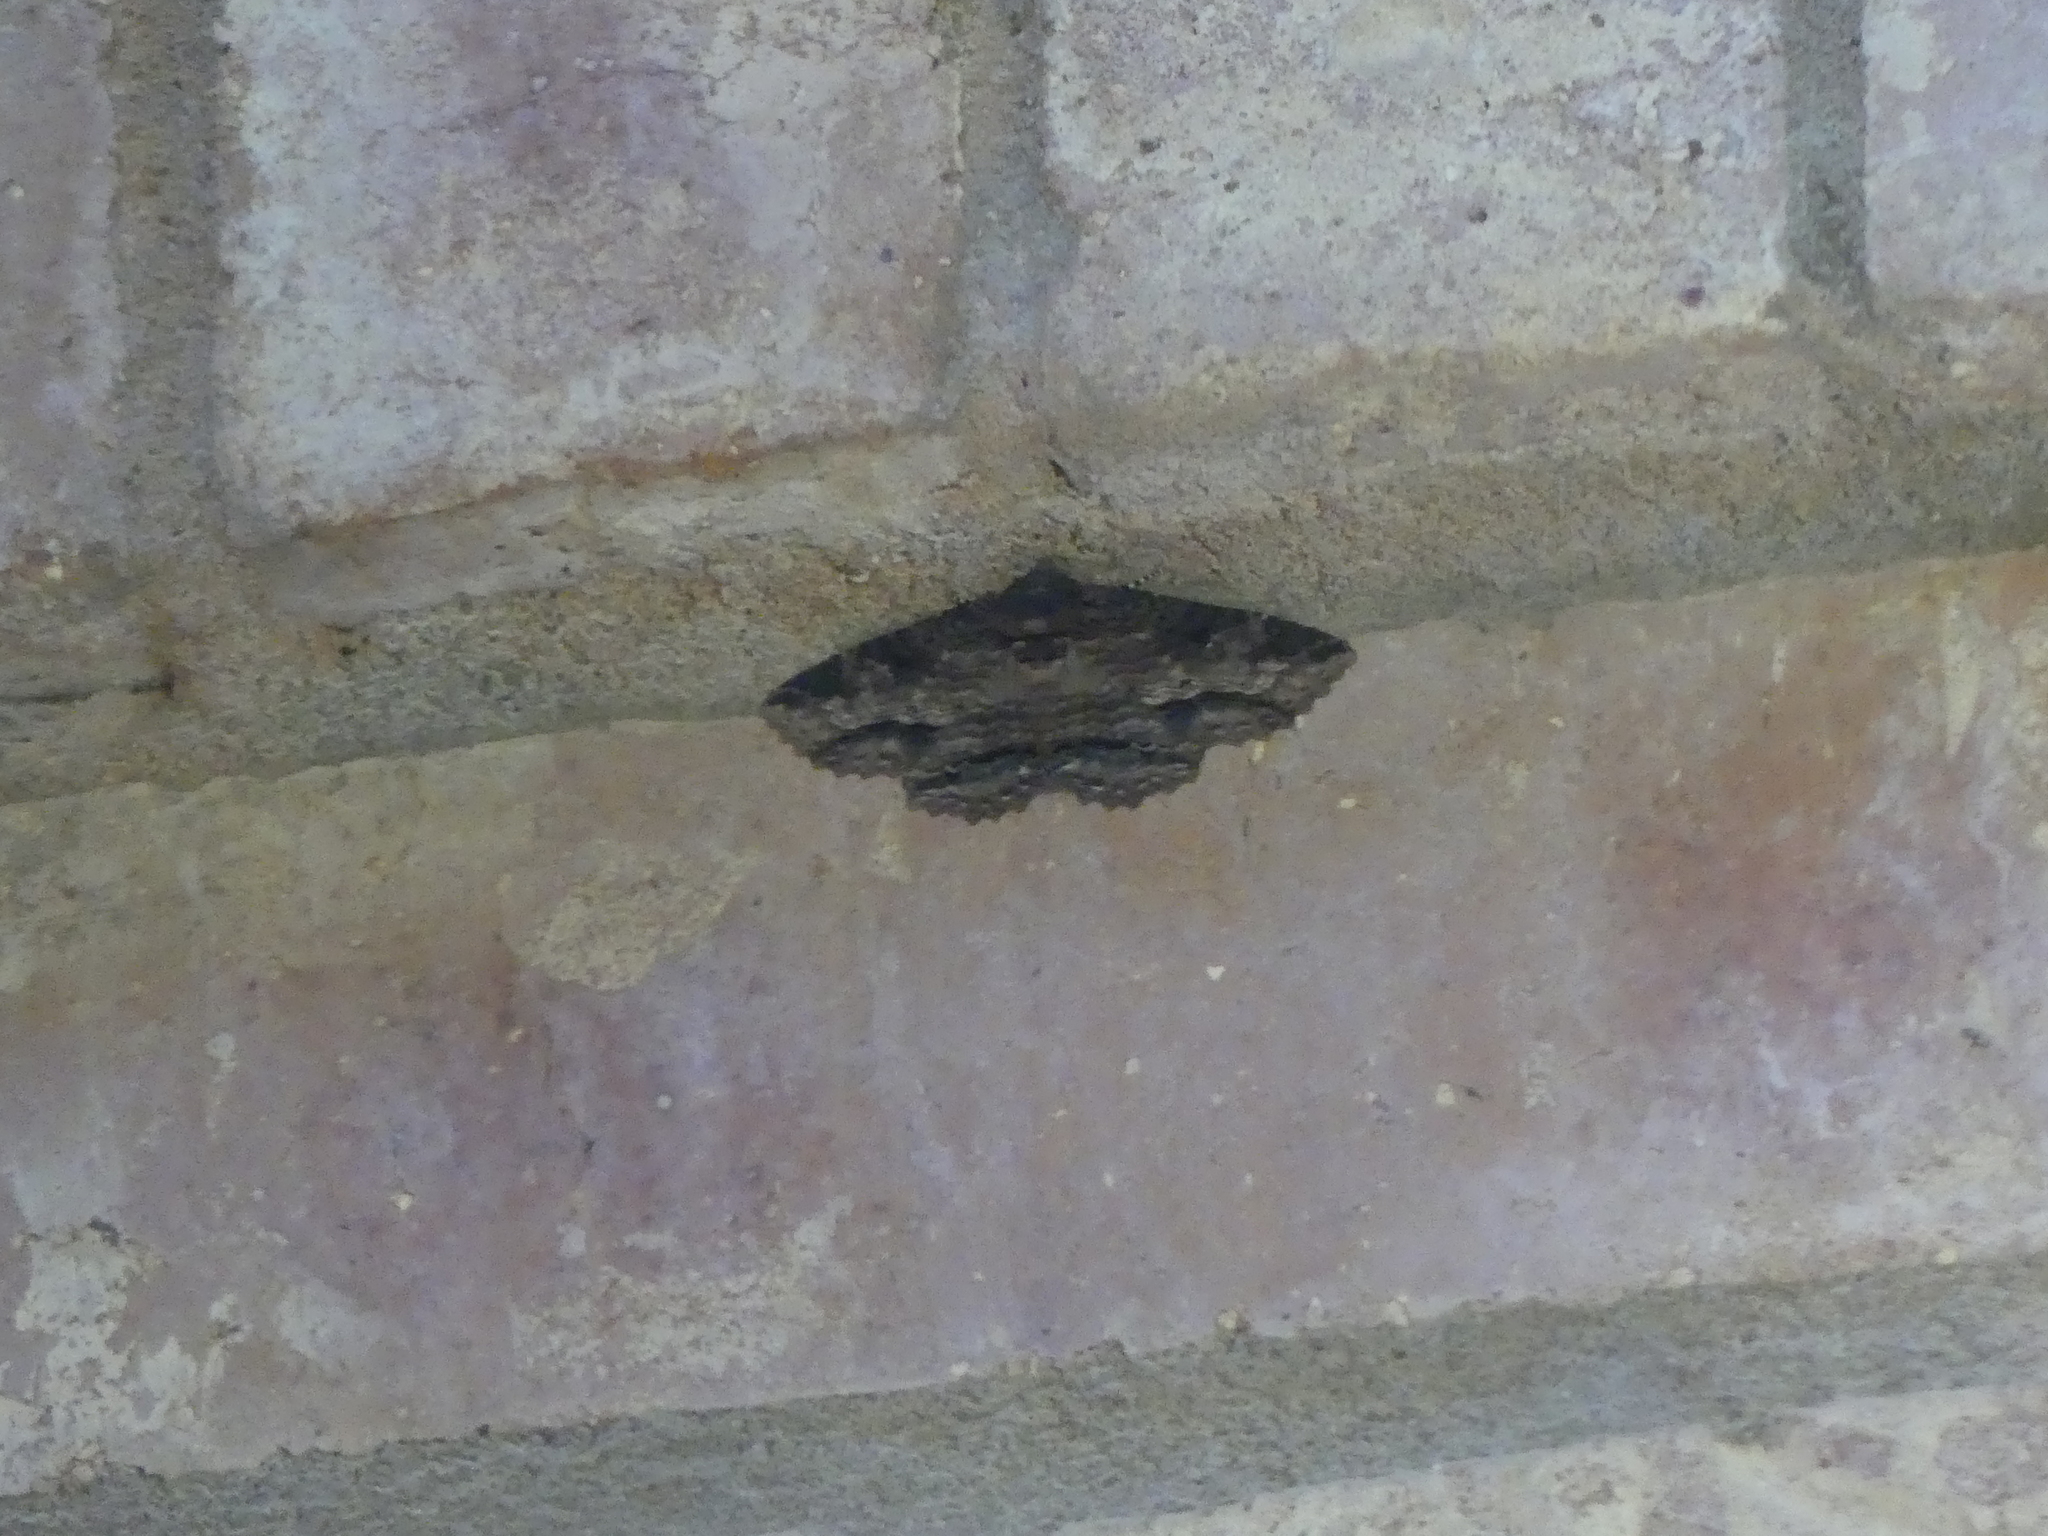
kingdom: Animalia
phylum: Arthropoda
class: Insecta
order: Lepidoptera
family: Erebidae
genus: Zale
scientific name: Zale lunata
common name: Lunate zale moth
